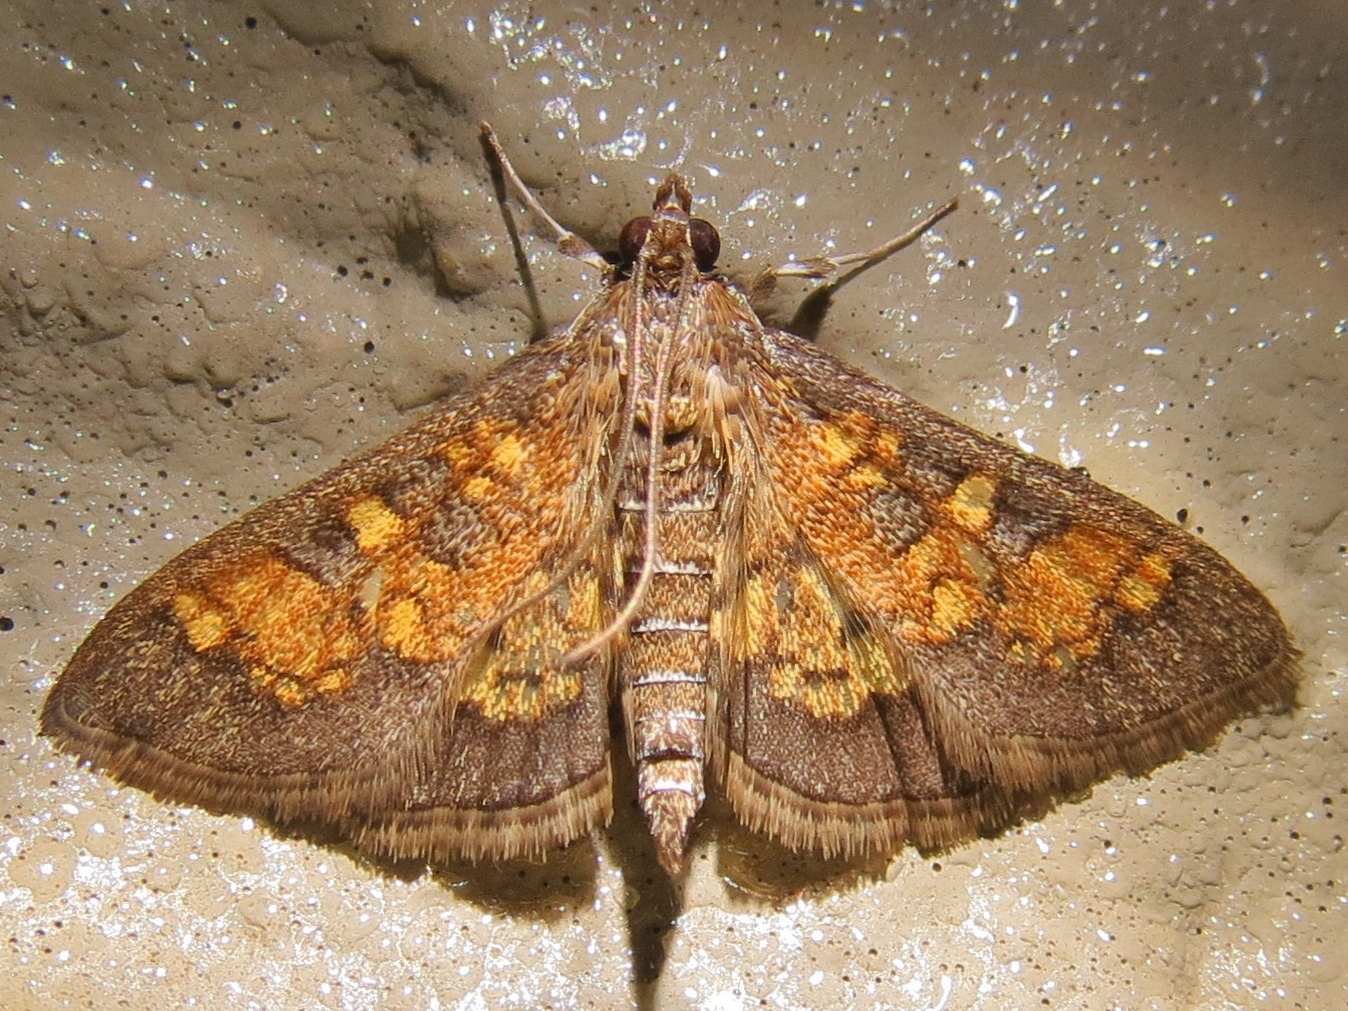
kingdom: Animalia
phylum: Arthropoda
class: Insecta
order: Lepidoptera
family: Crambidae
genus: Epipagis
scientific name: Epipagis adipaloides
